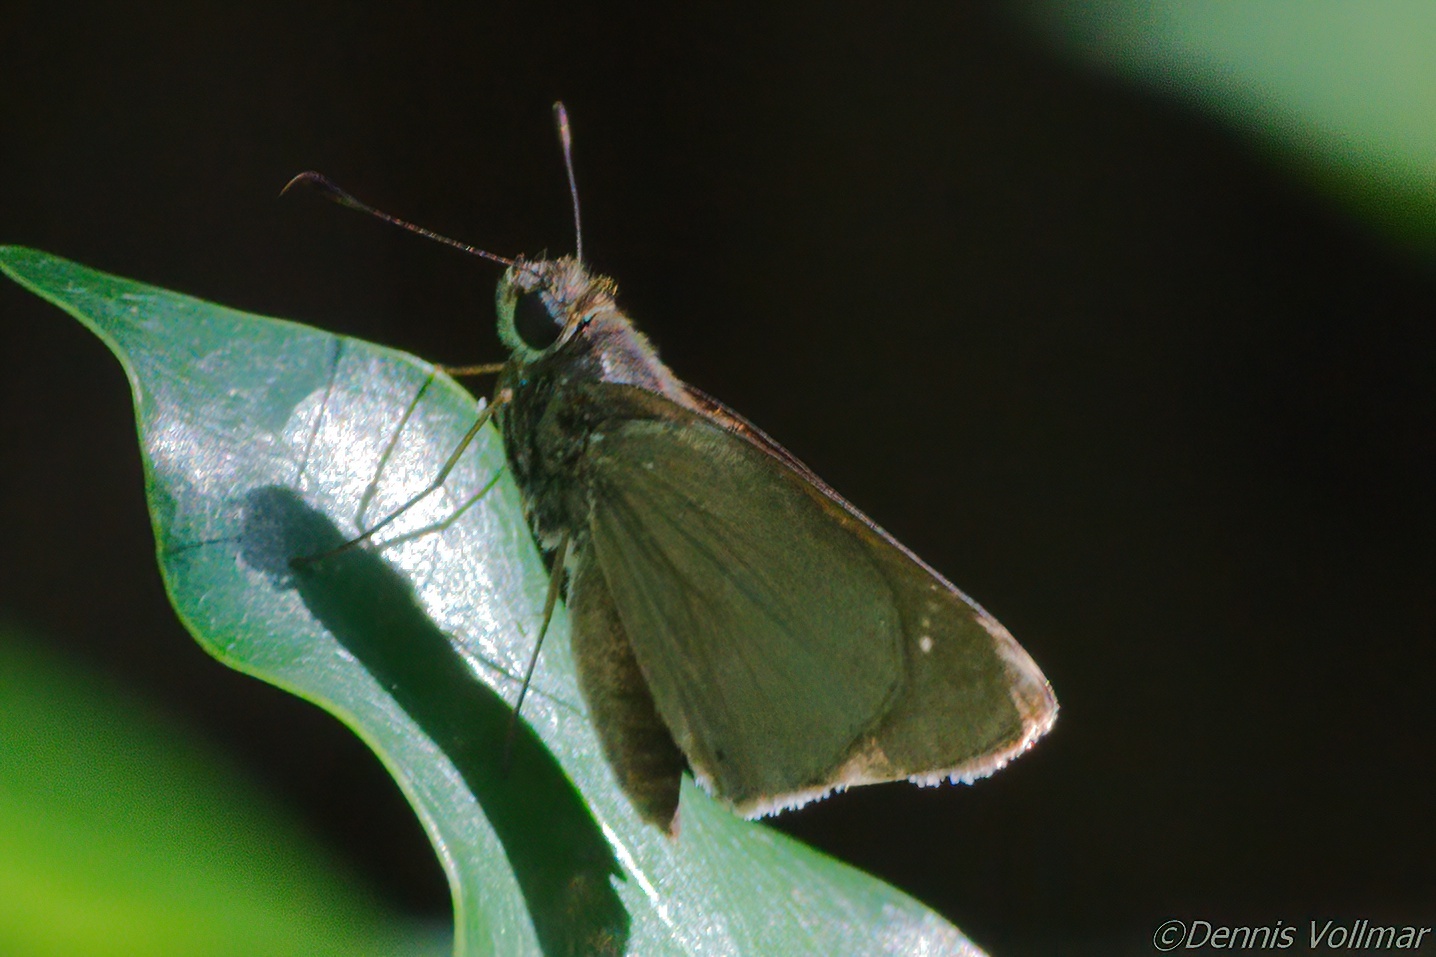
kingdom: Animalia
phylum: Arthropoda
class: Insecta
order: Lepidoptera
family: Hesperiidae
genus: Cymaenes
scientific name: Cymaenes tripunctus
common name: Dingy dotted skipper
